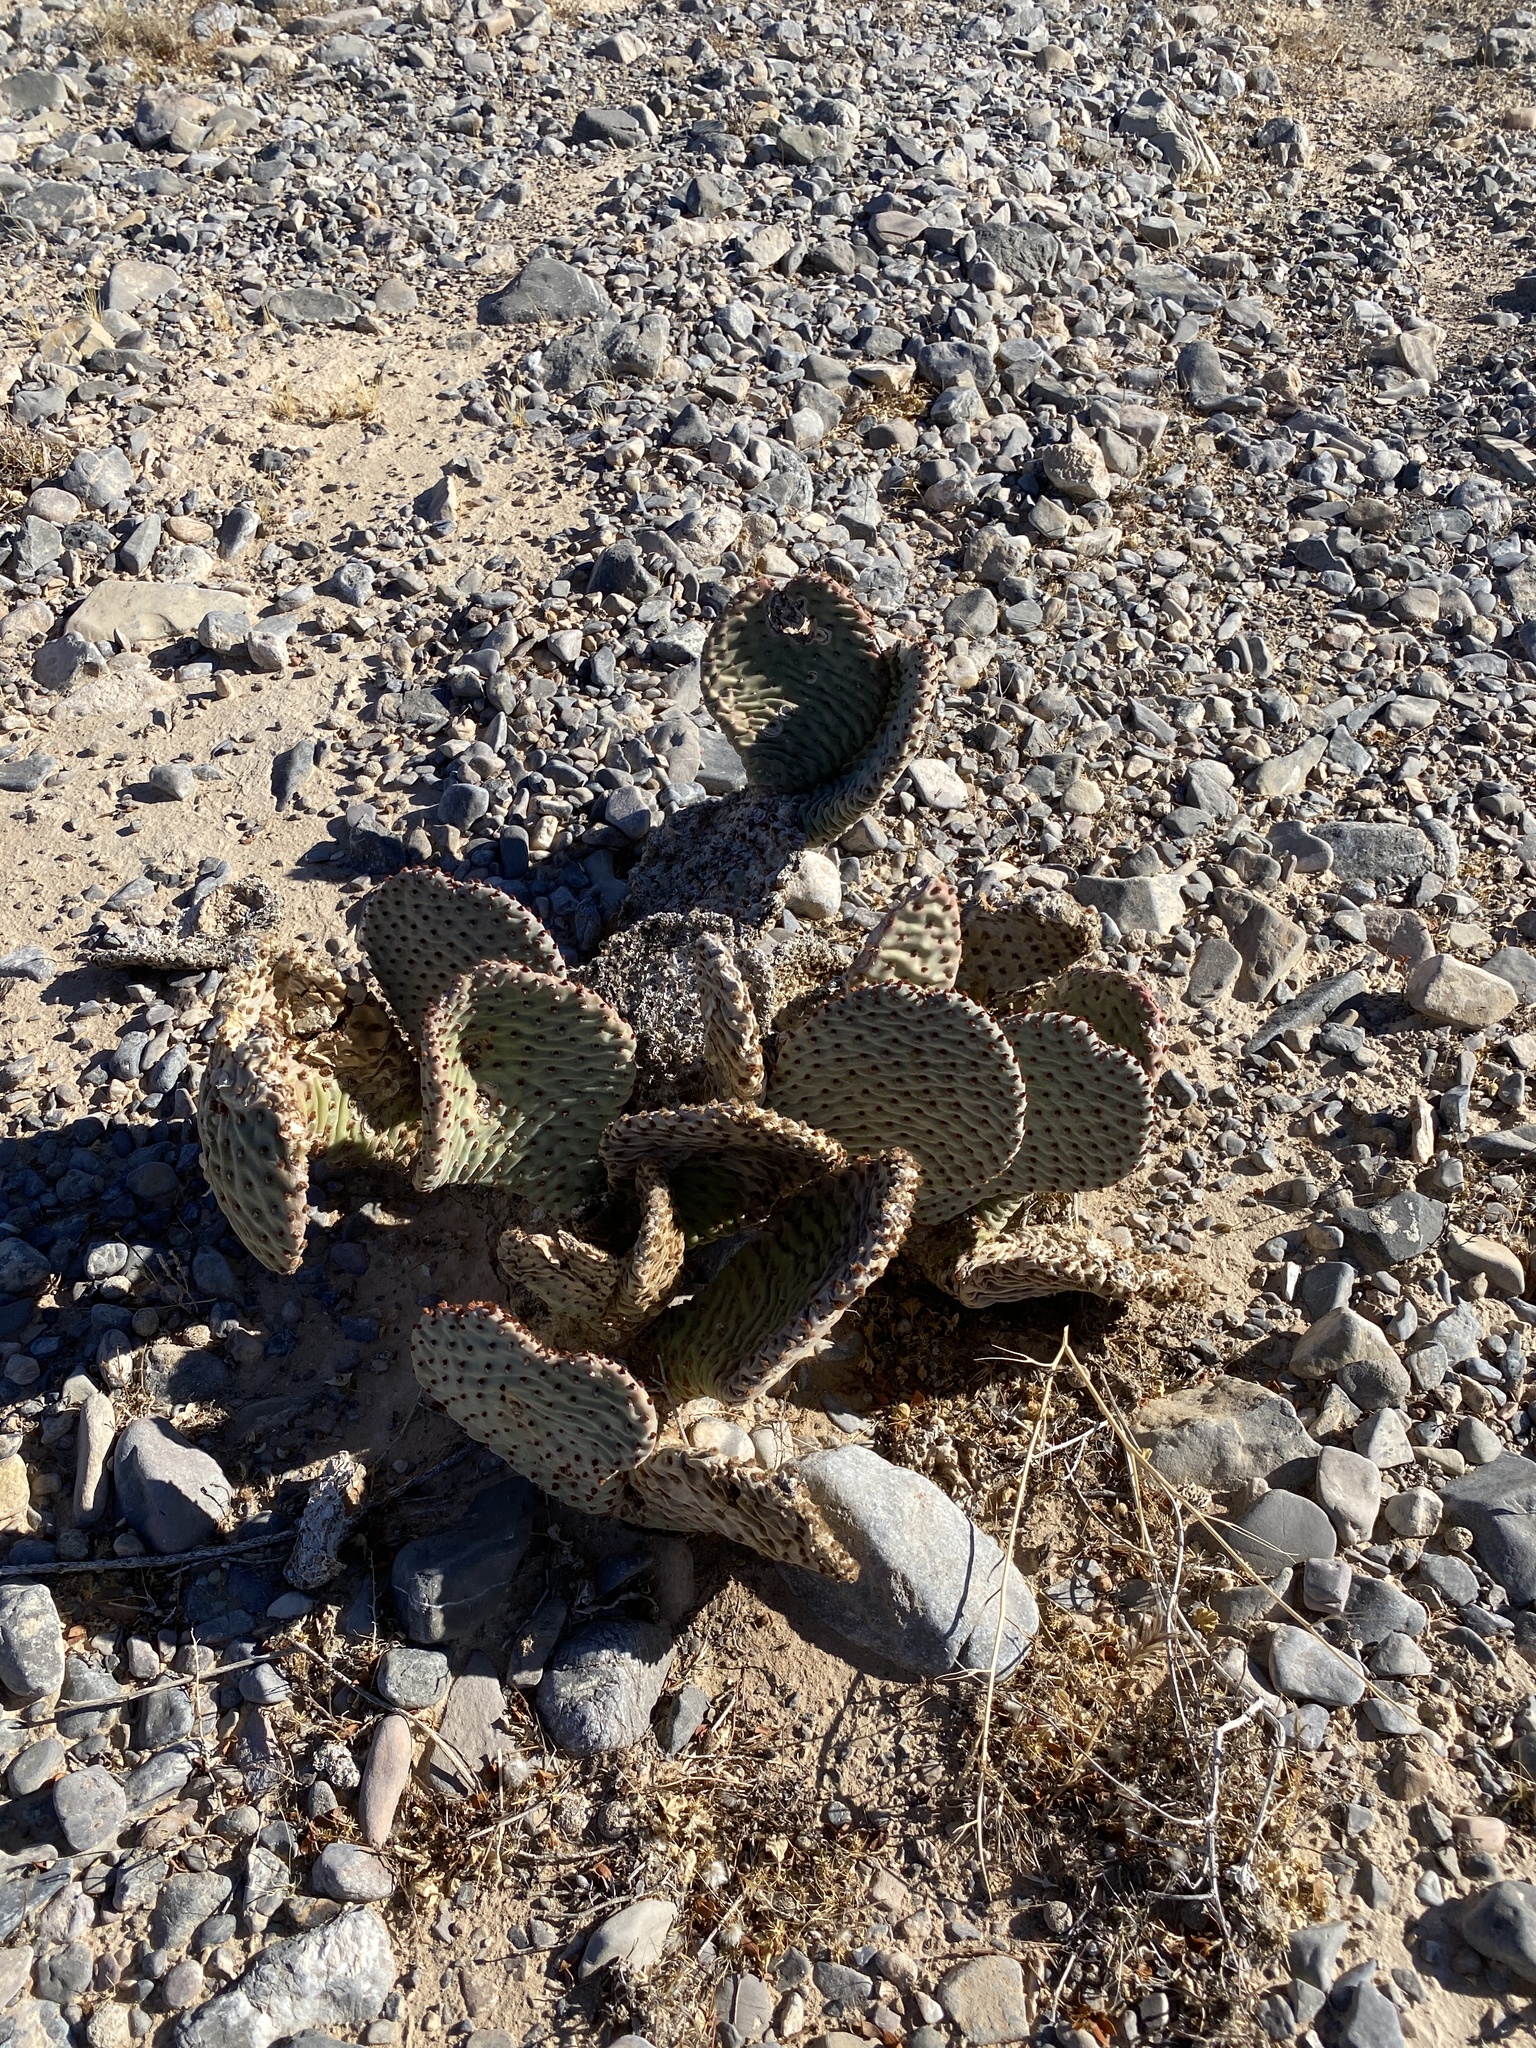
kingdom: Plantae
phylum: Tracheophyta
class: Magnoliopsida
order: Caryophyllales
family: Cactaceae
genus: Opuntia
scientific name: Opuntia basilaris
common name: Beavertail prickly-pear
